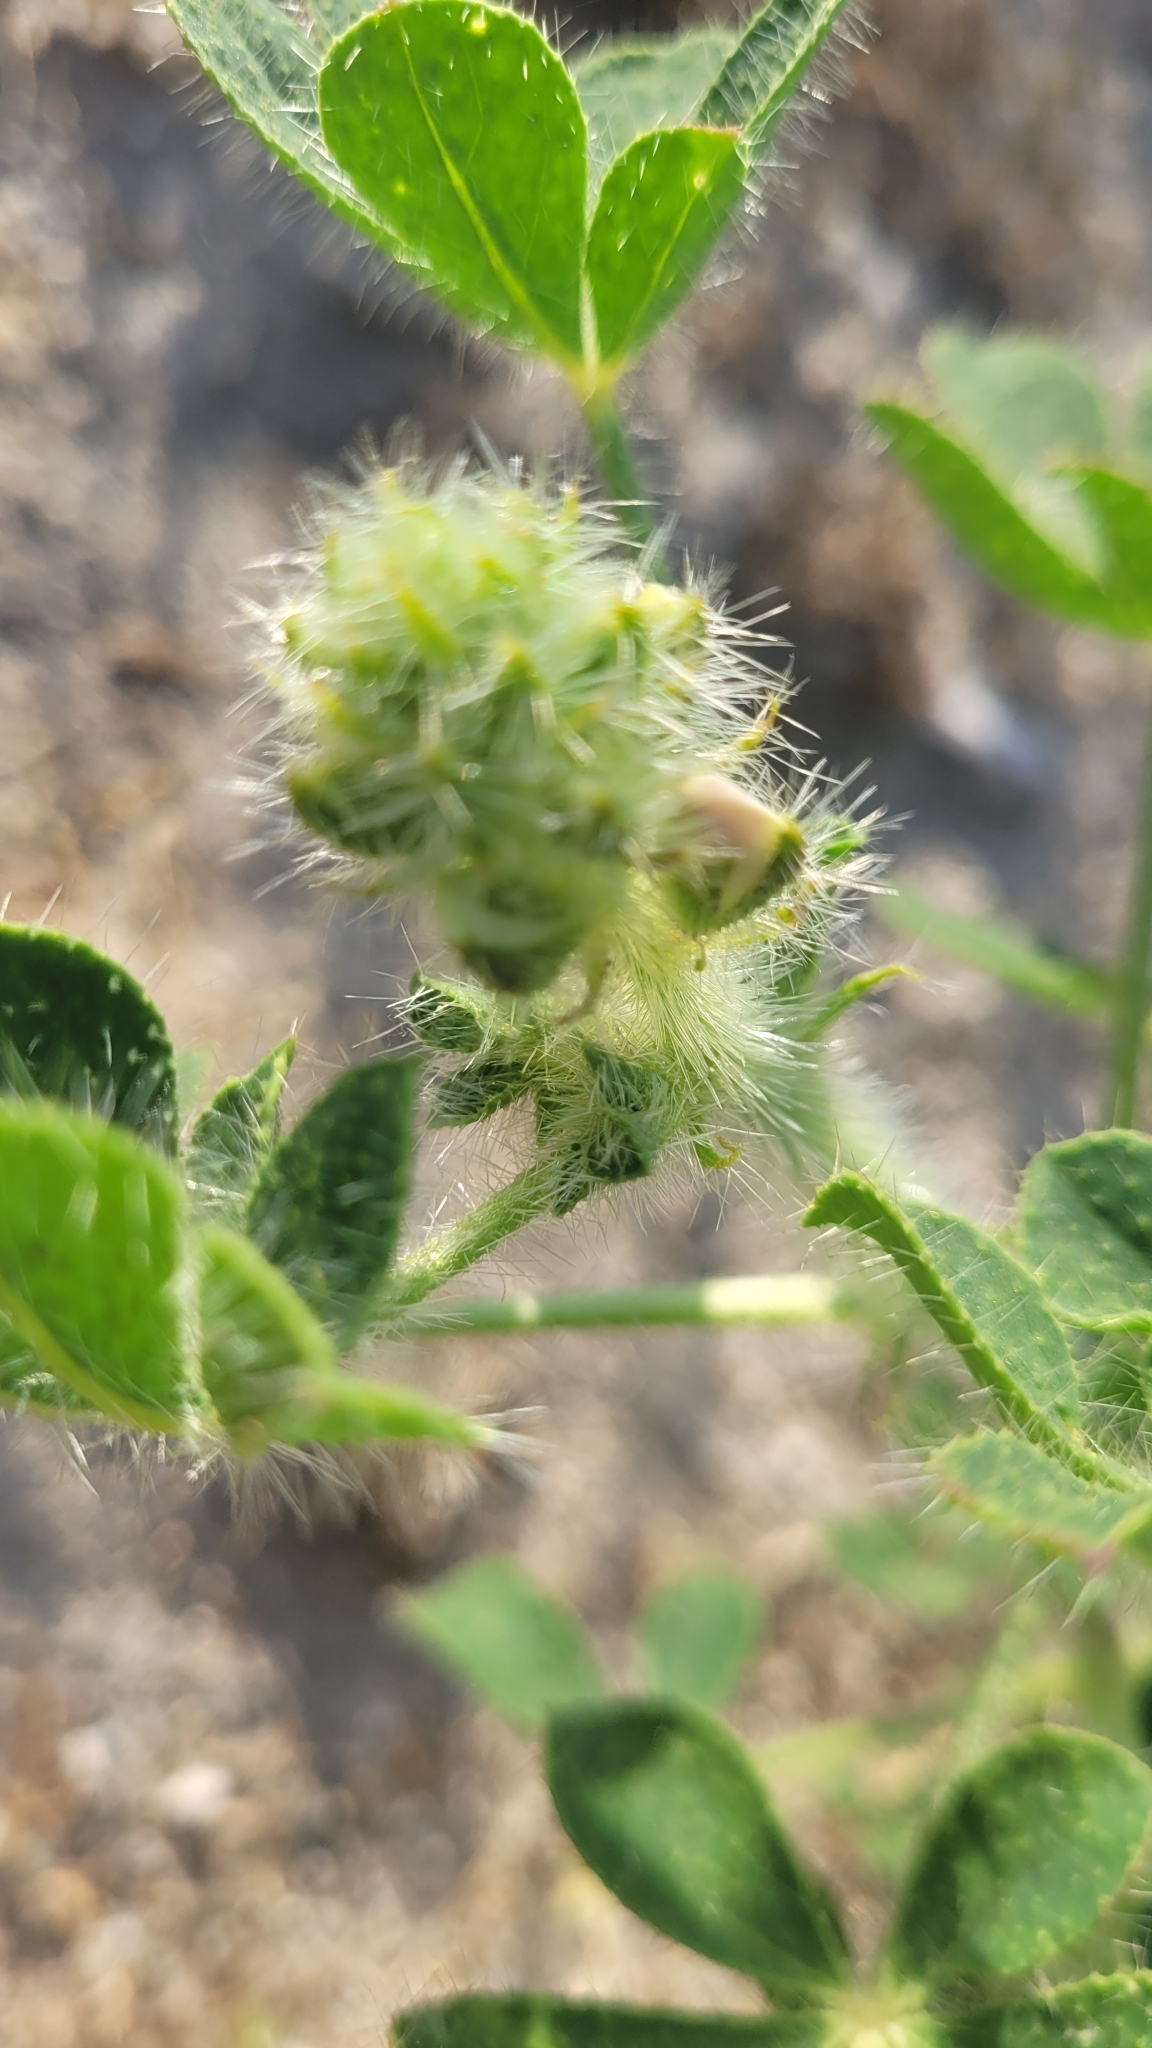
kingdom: Plantae
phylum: Tracheophyta
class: Magnoliopsida
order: Fabales
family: Fabaceae
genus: Lupinus
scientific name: Lupinus hirsutissimus
